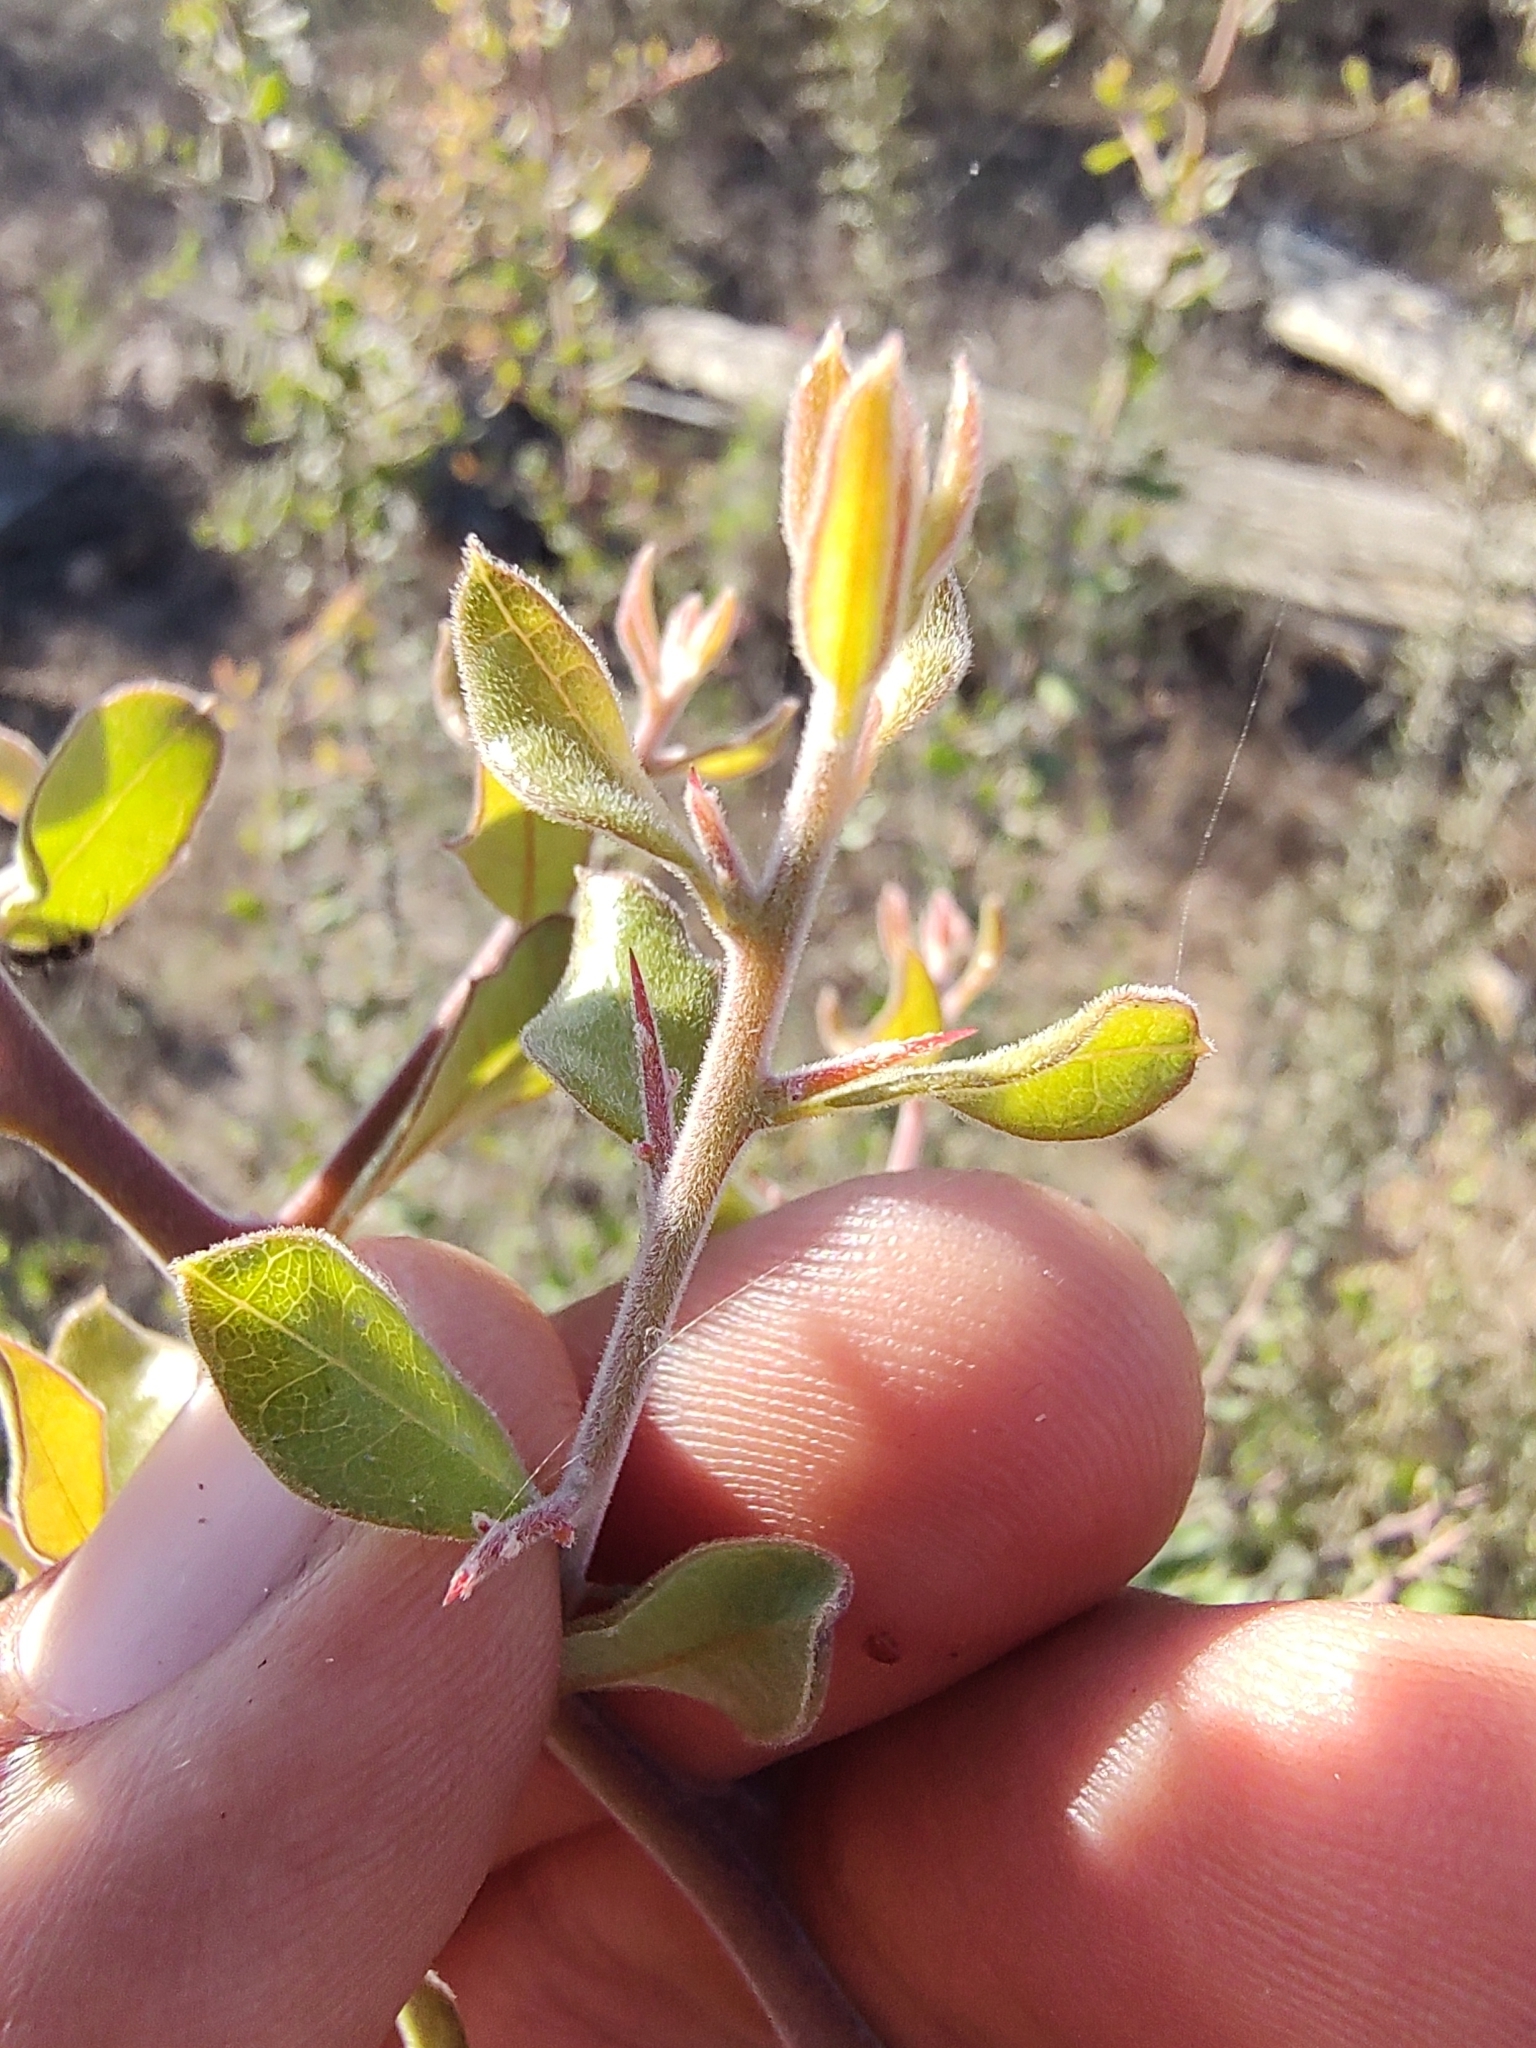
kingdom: Plantae
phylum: Tracheophyta
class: Magnoliopsida
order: Sapindales
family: Simaroubaceae
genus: Castela
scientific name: Castela peninsularis
